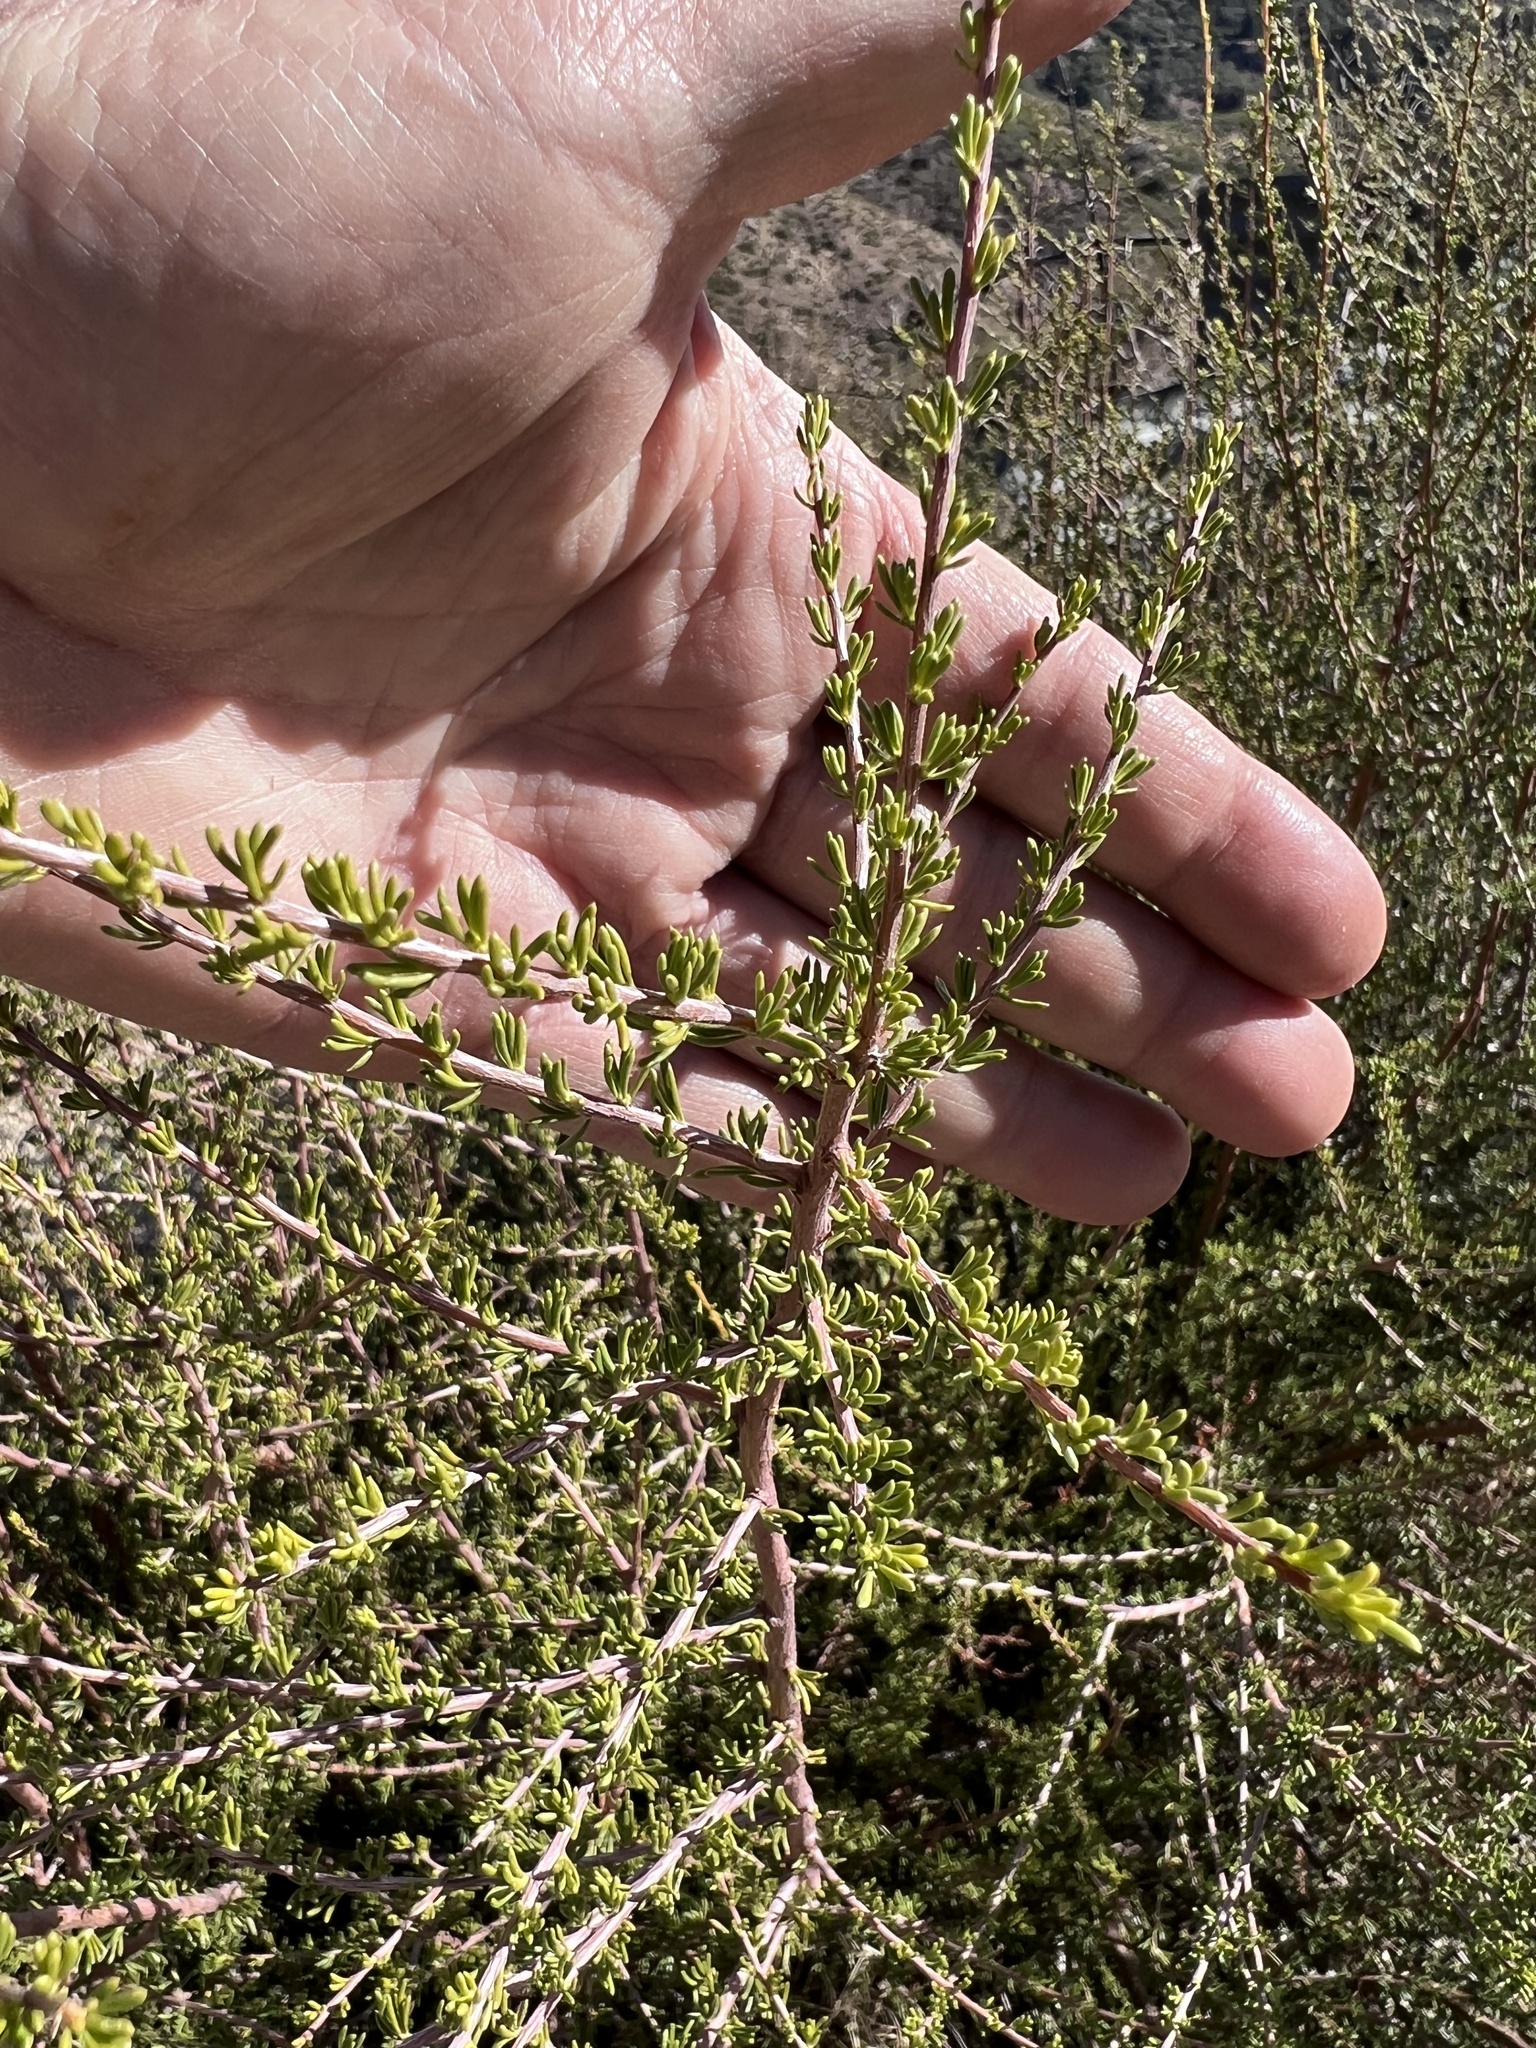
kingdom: Plantae
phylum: Tracheophyta
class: Magnoliopsida
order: Rosales
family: Rosaceae
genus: Adenostoma
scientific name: Adenostoma fasciculatum
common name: Chamise
